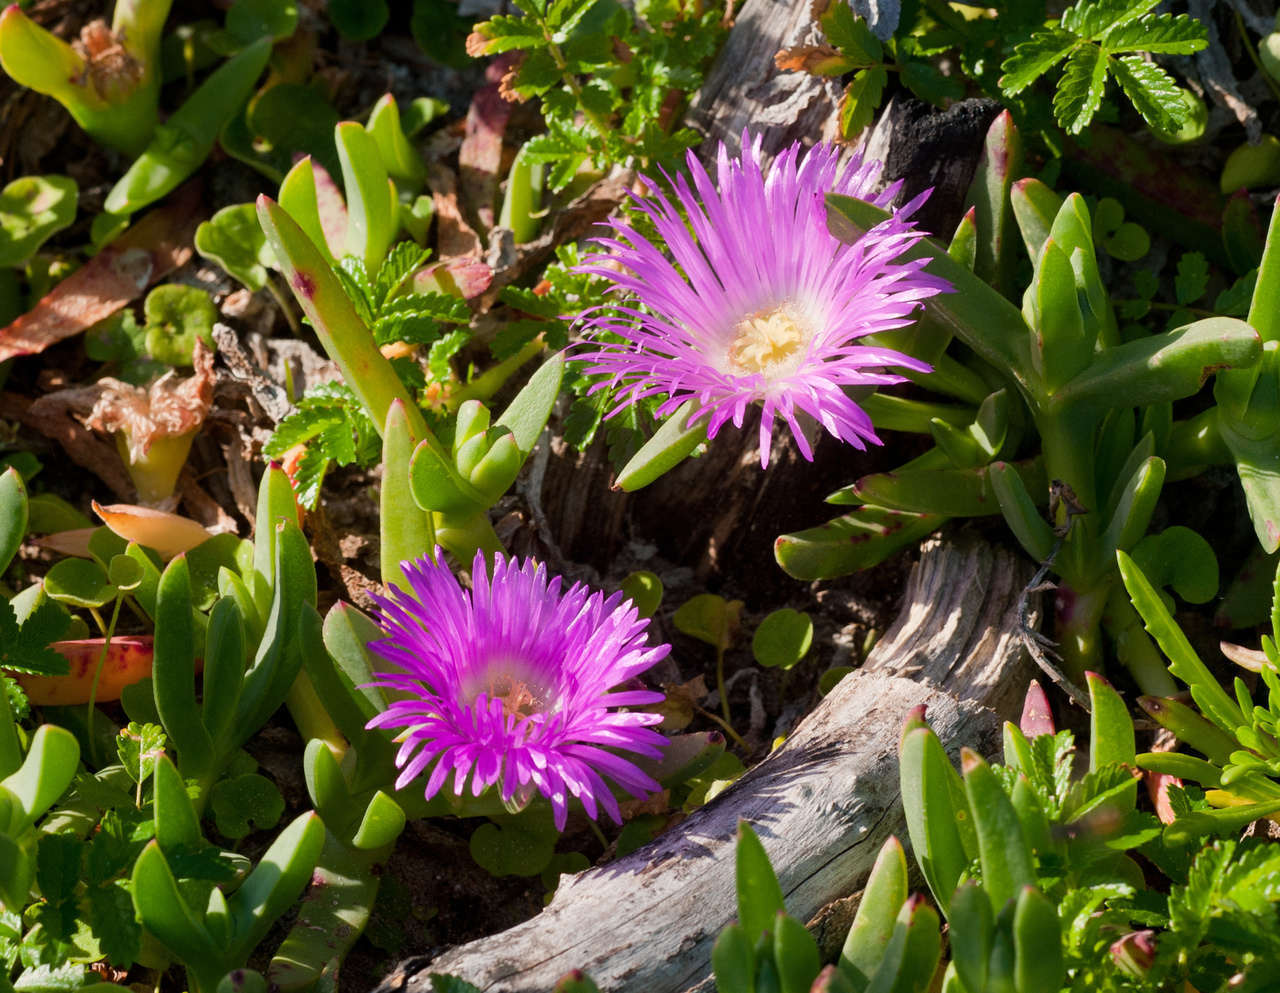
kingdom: Plantae
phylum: Tracheophyta
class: Magnoliopsida
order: Caryophyllales
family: Aizoaceae
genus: Carpobrotus
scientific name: Carpobrotus rossii
